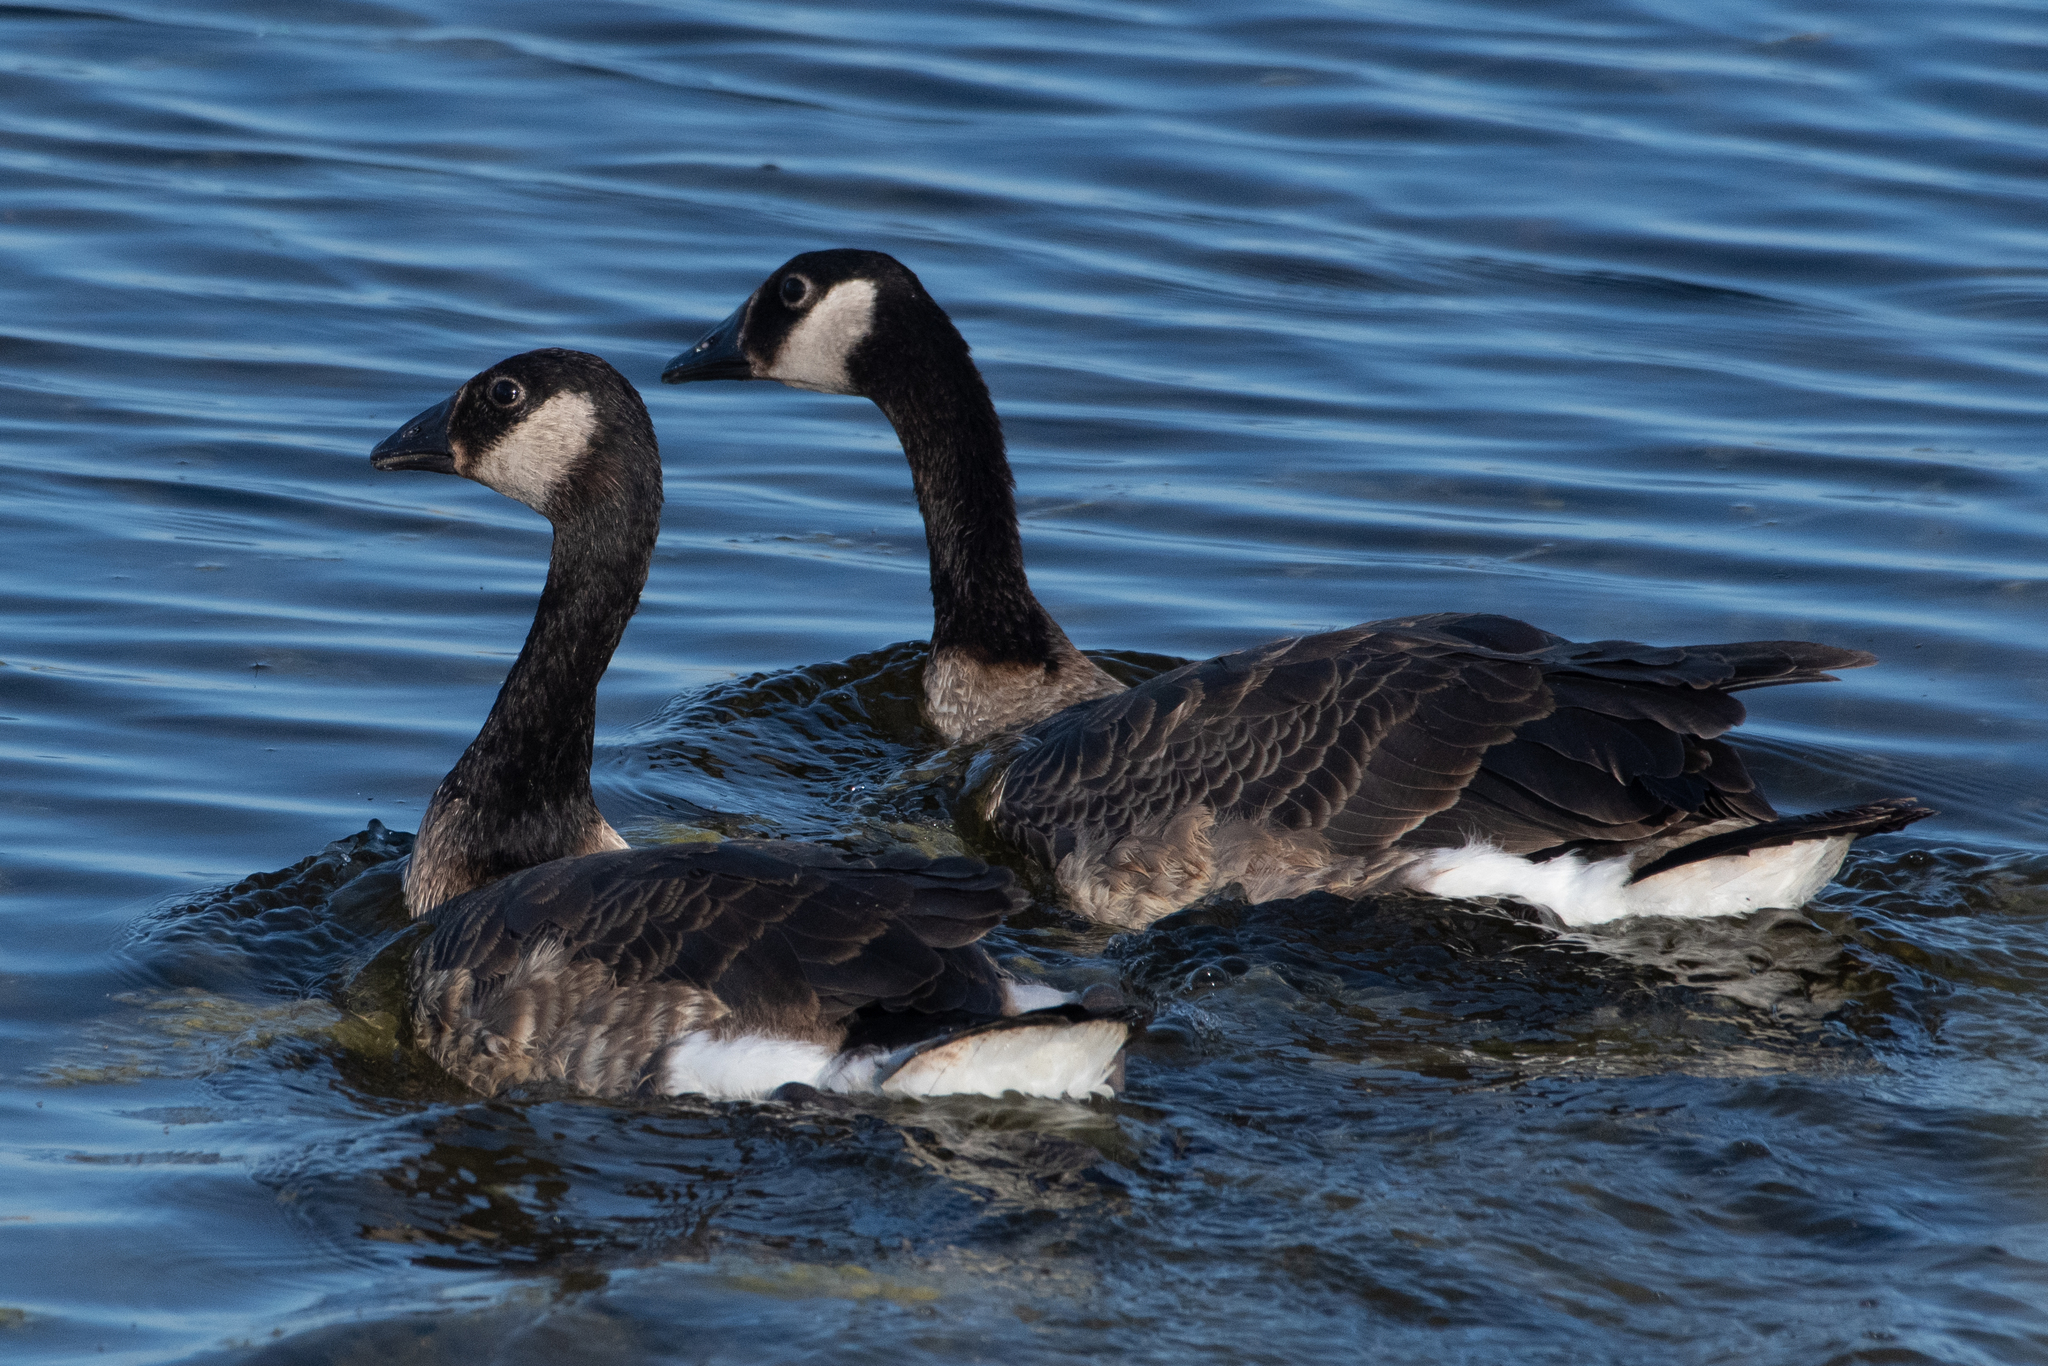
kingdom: Animalia
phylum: Chordata
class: Aves
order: Anseriformes
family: Anatidae
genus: Branta
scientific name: Branta canadensis
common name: Canada goose
